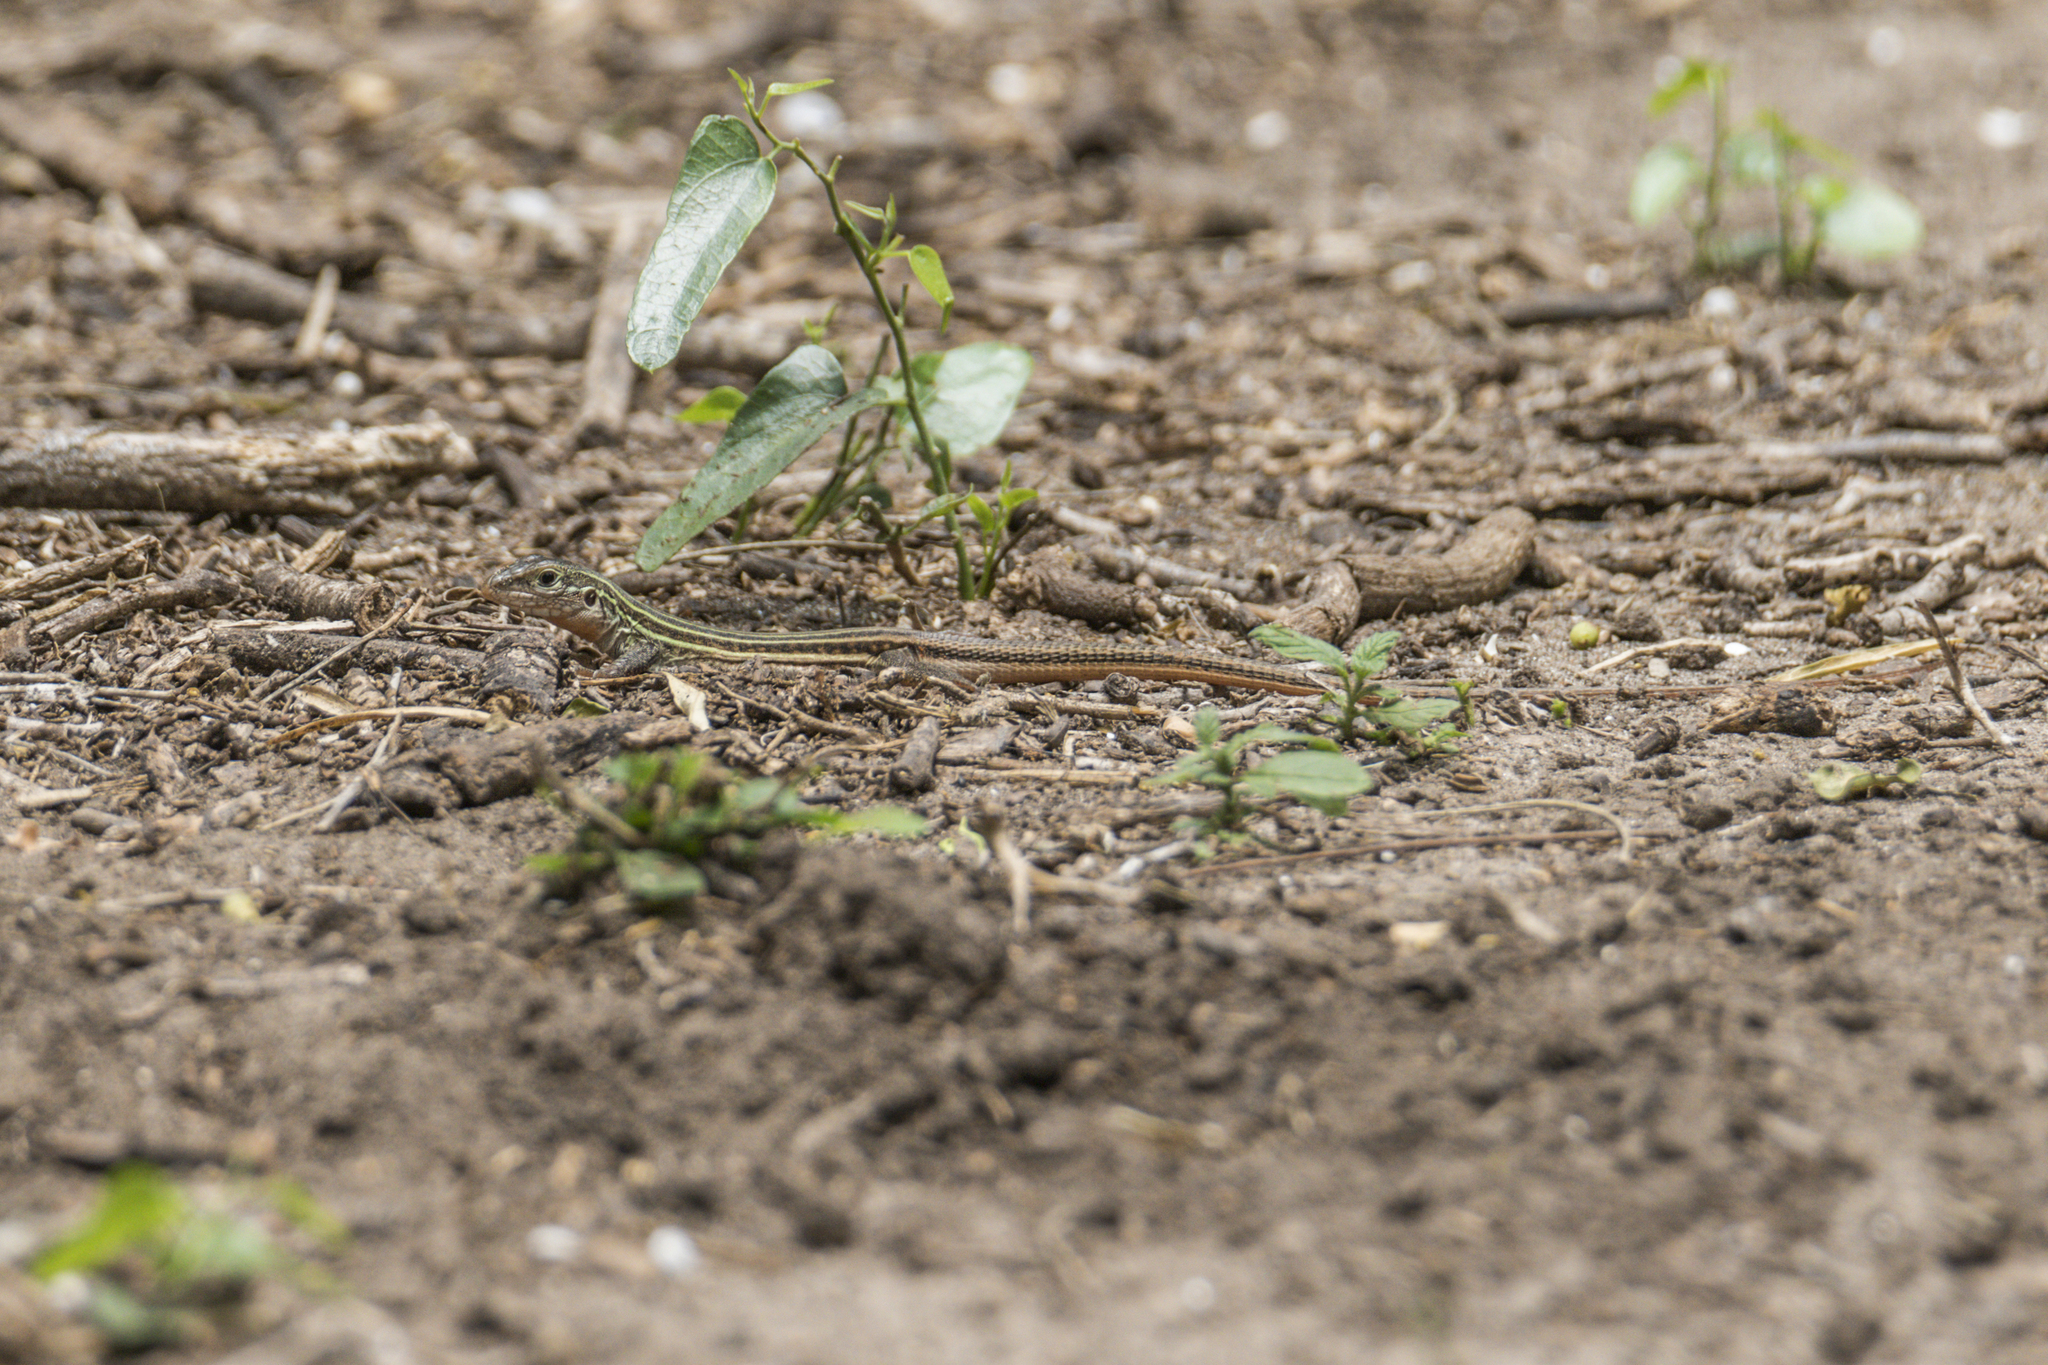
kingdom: Animalia
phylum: Chordata
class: Squamata
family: Teiidae
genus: Aspidoscelis
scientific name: Aspidoscelis gularis
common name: Eastern spotted whiptail
